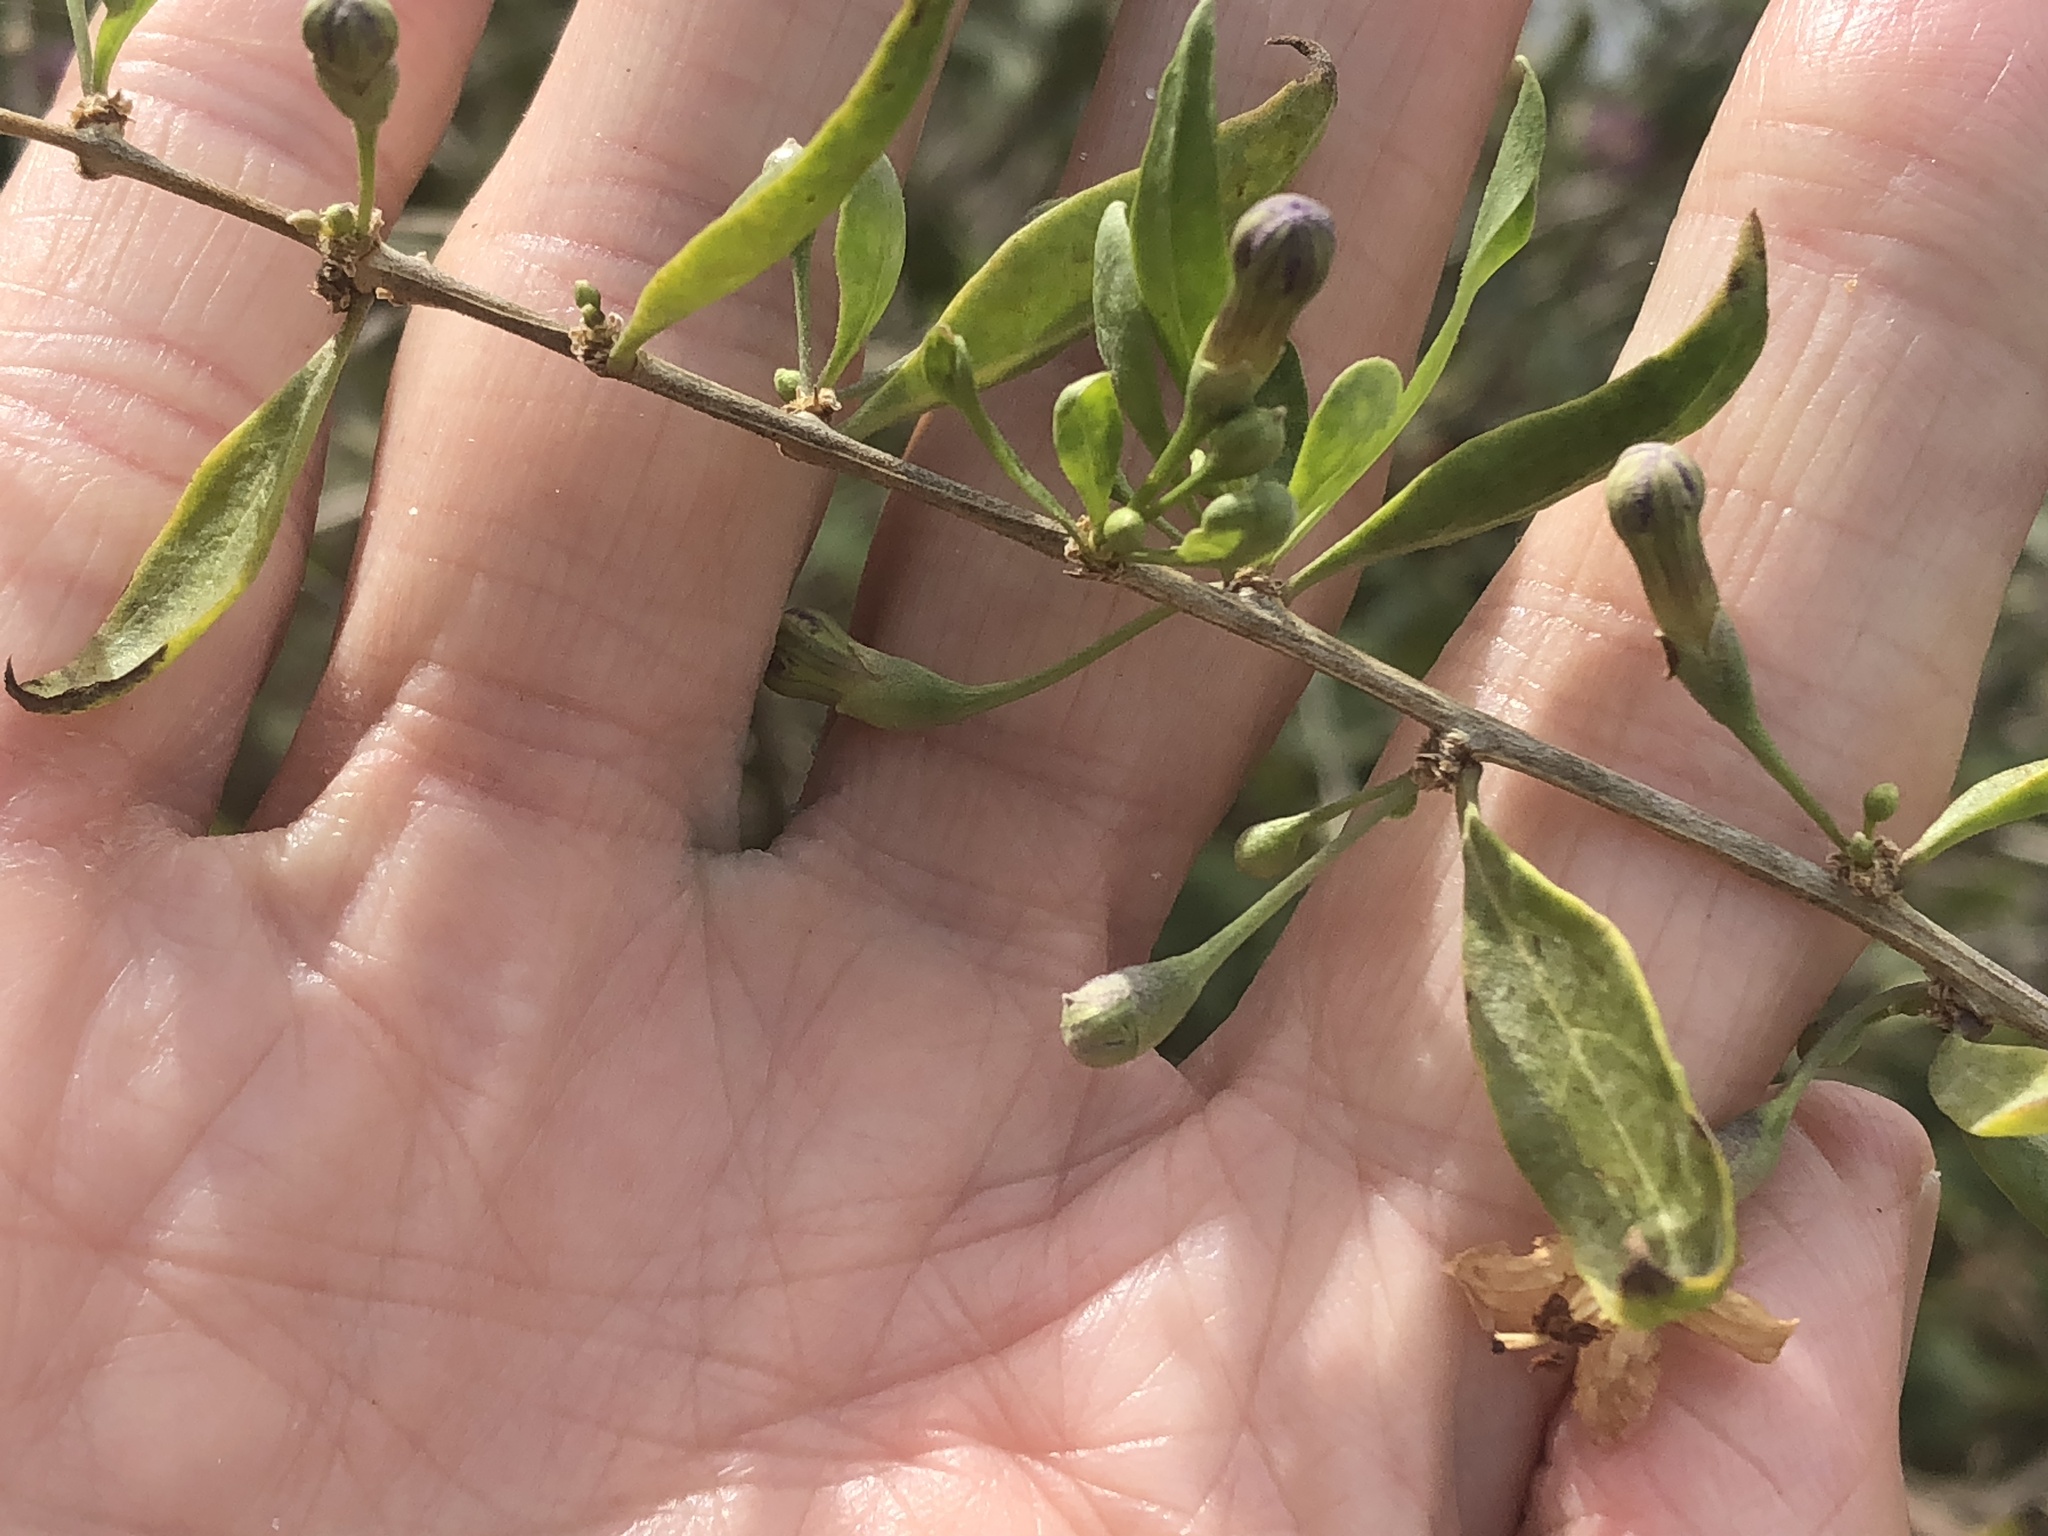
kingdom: Plantae
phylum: Tracheophyta
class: Magnoliopsida
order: Solanales
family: Solanaceae
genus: Lycium
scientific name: Lycium barbarum
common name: Duke of argyll's teaplant
